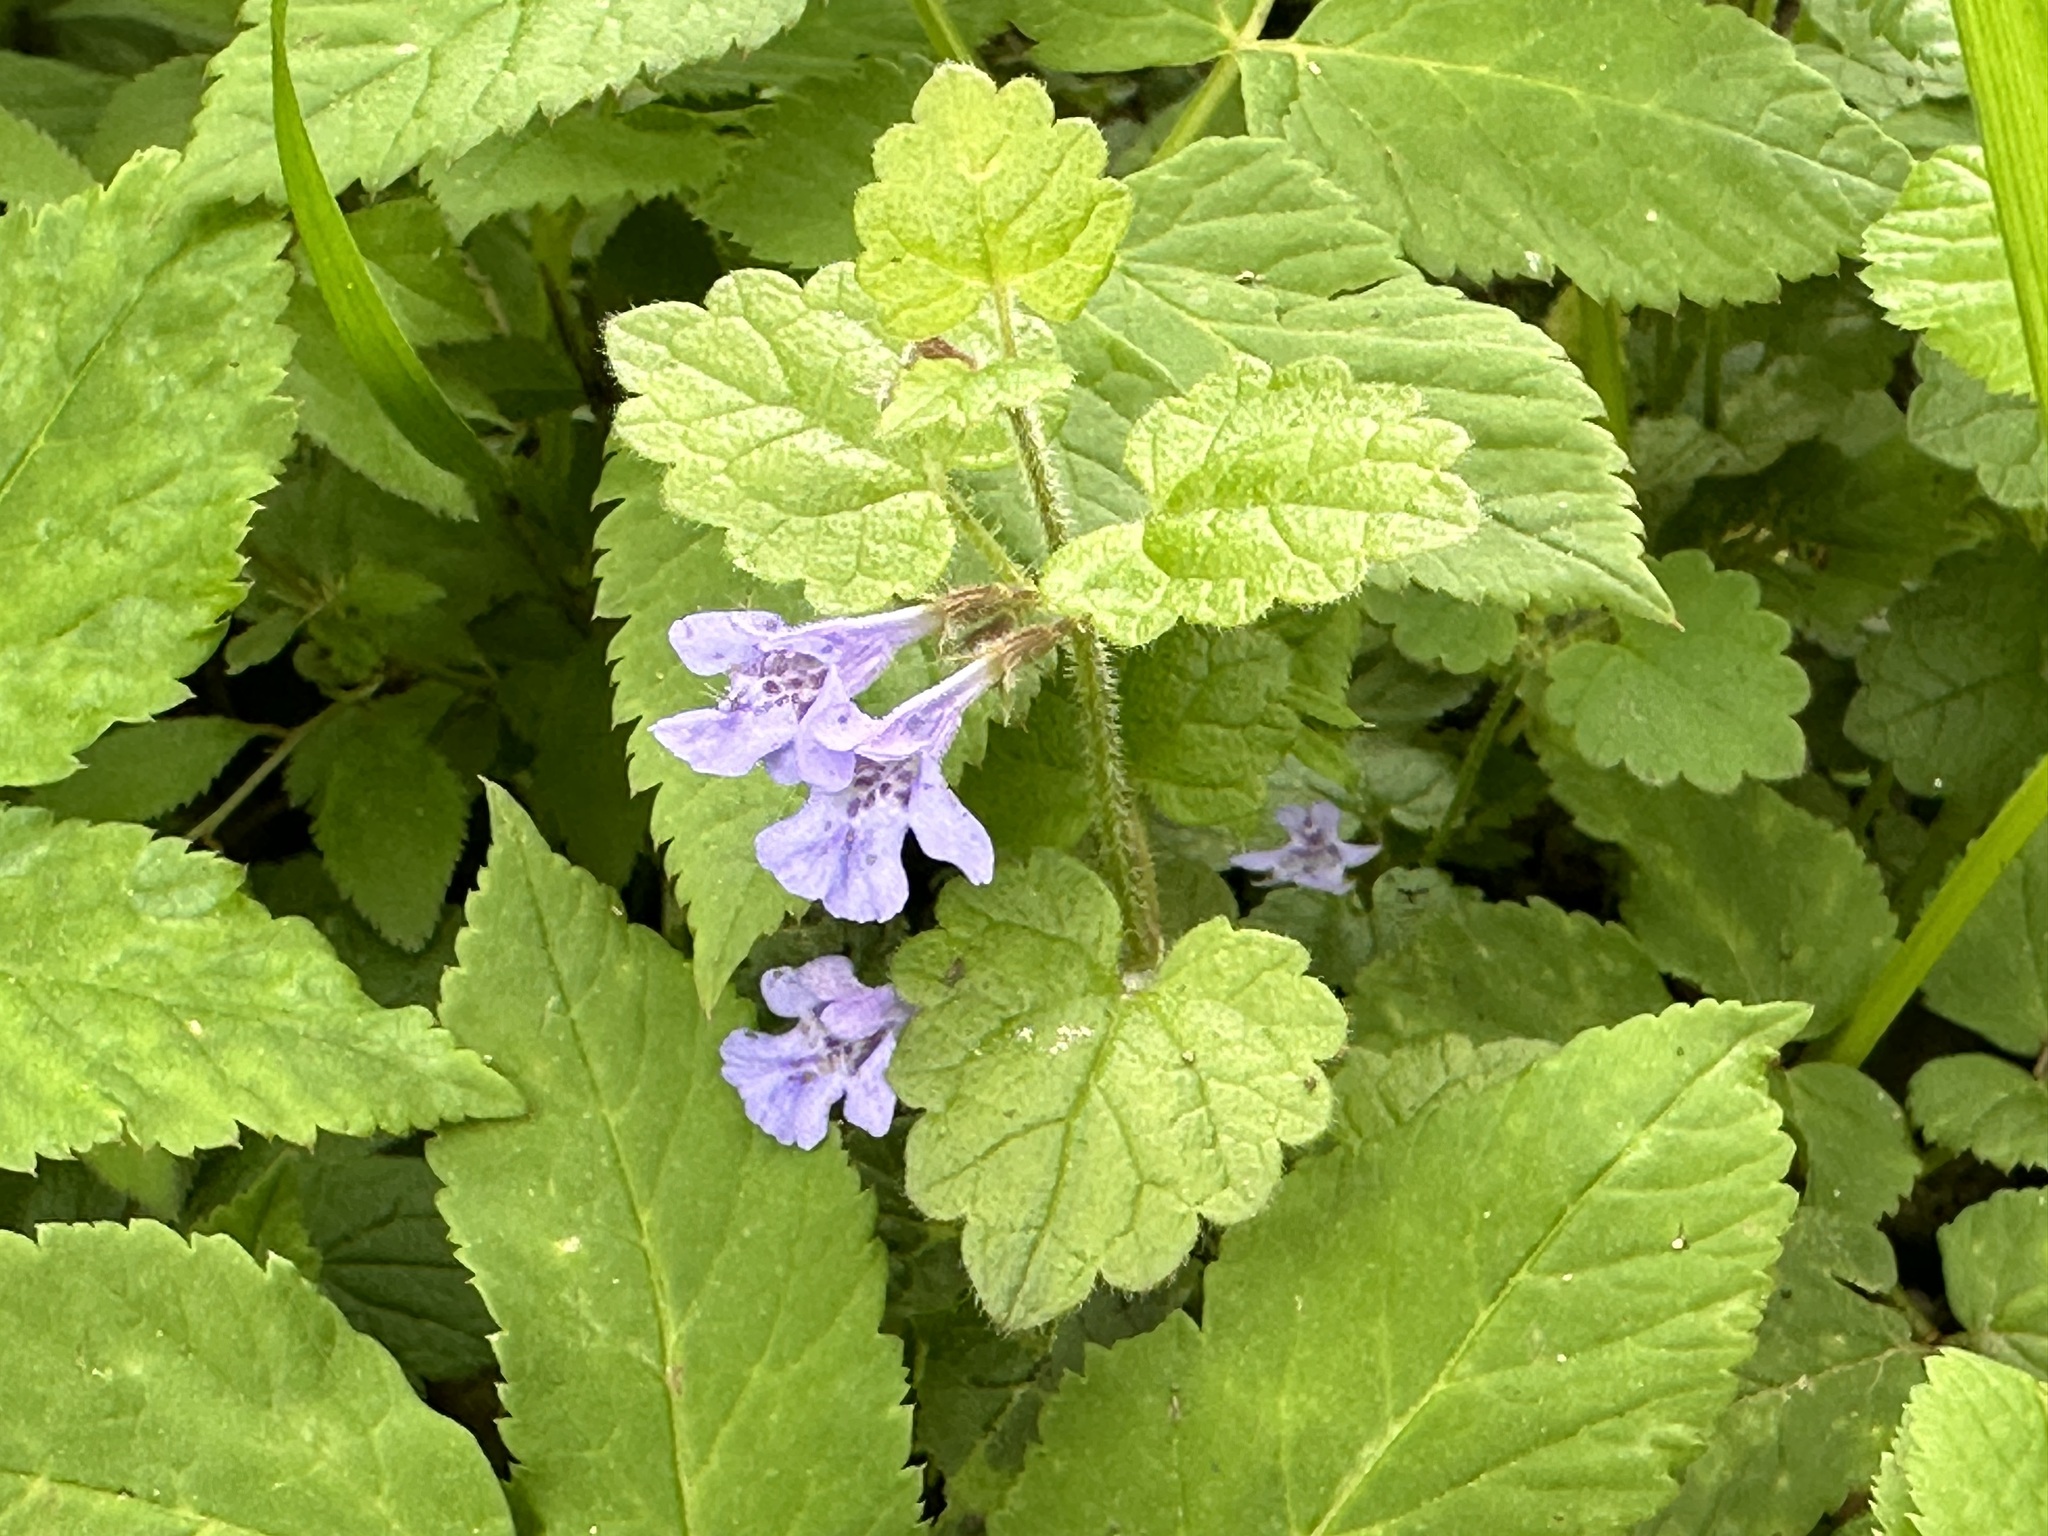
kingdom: Plantae
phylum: Tracheophyta
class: Magnoliopsida
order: Lamiales
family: Lamiaceae
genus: Glechoma
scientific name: Glechoma hederacea
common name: Ground ivy
